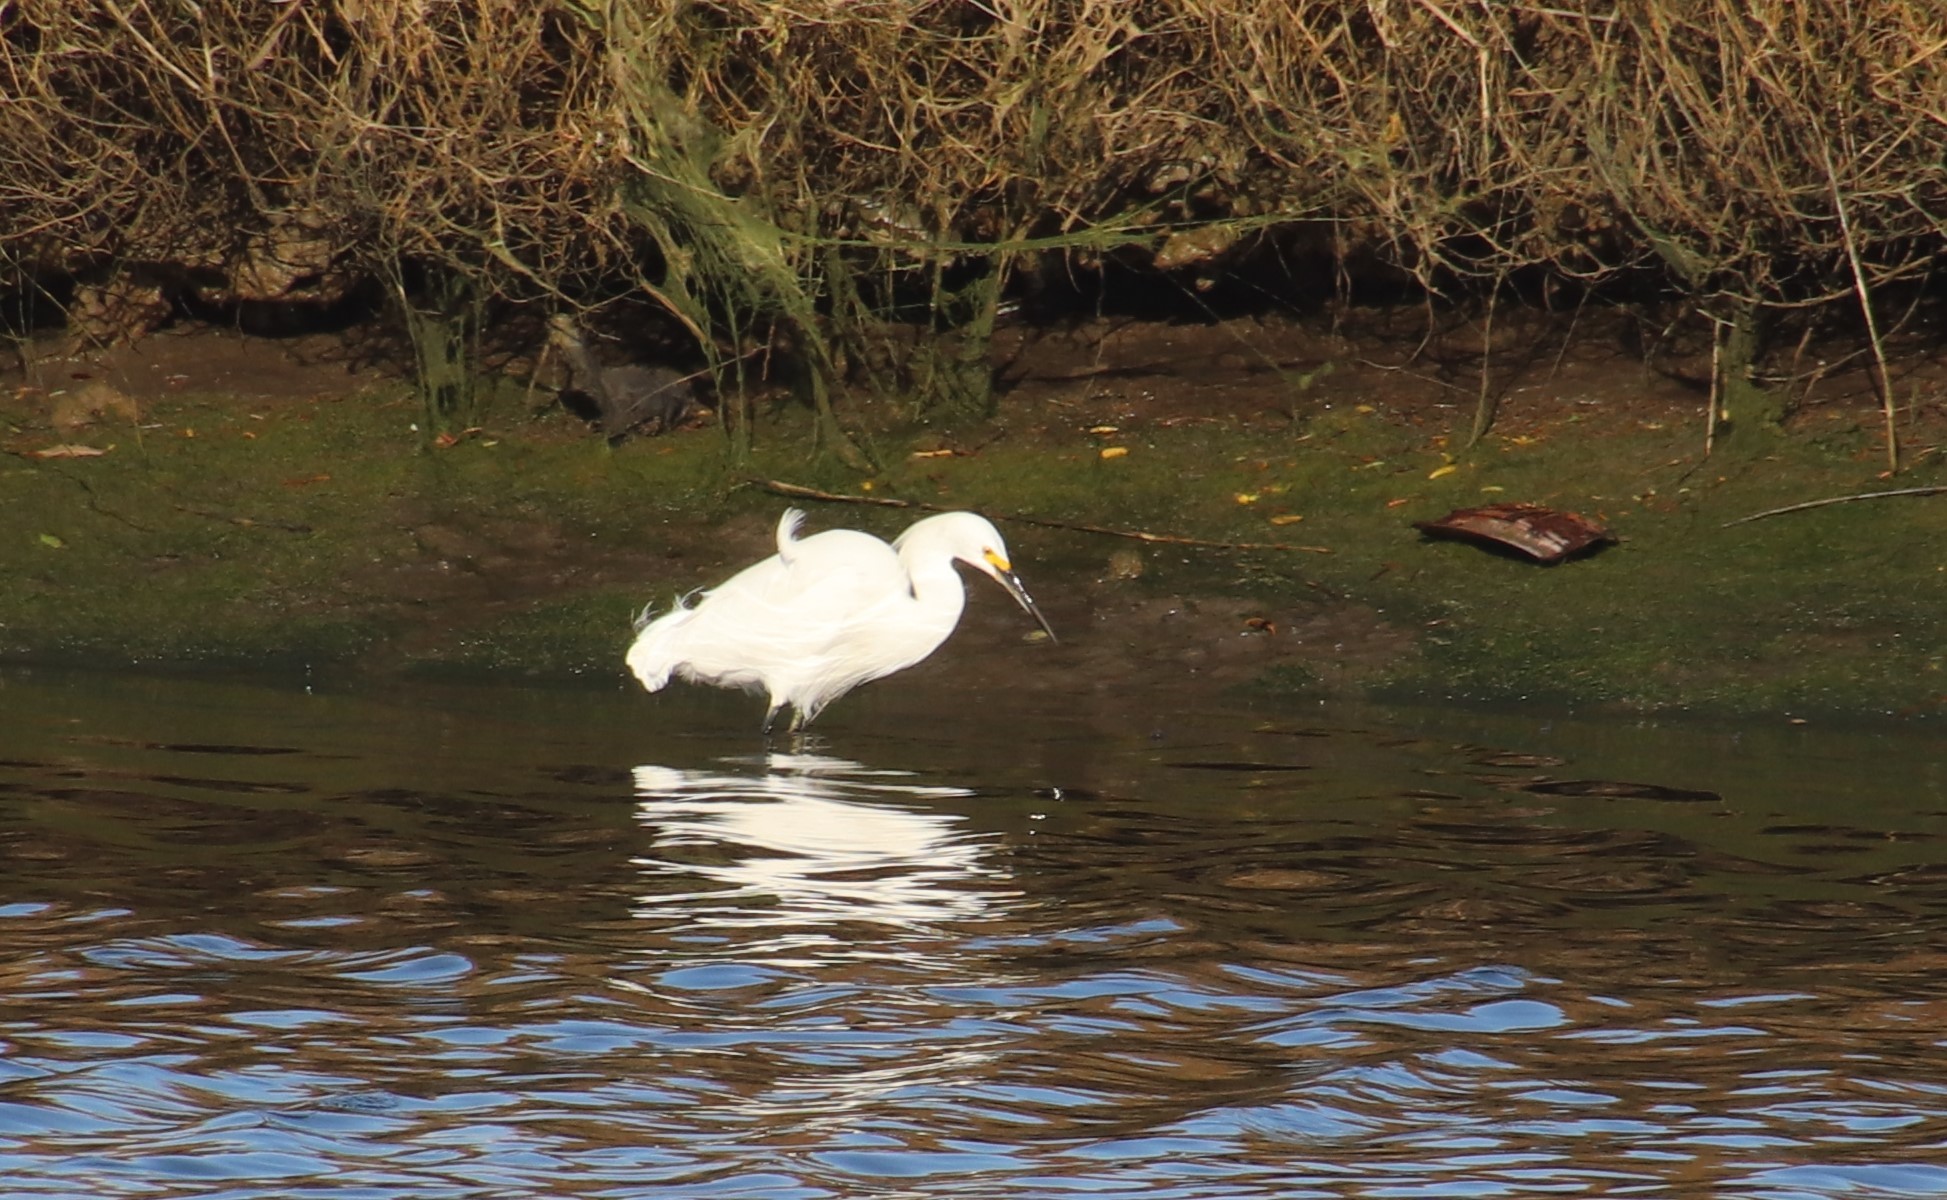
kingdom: Animalia
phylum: Chordata
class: Aves
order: Pelecaniformes
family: Ardeidae
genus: Egretta
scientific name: Egretta thula
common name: Snowy egret
